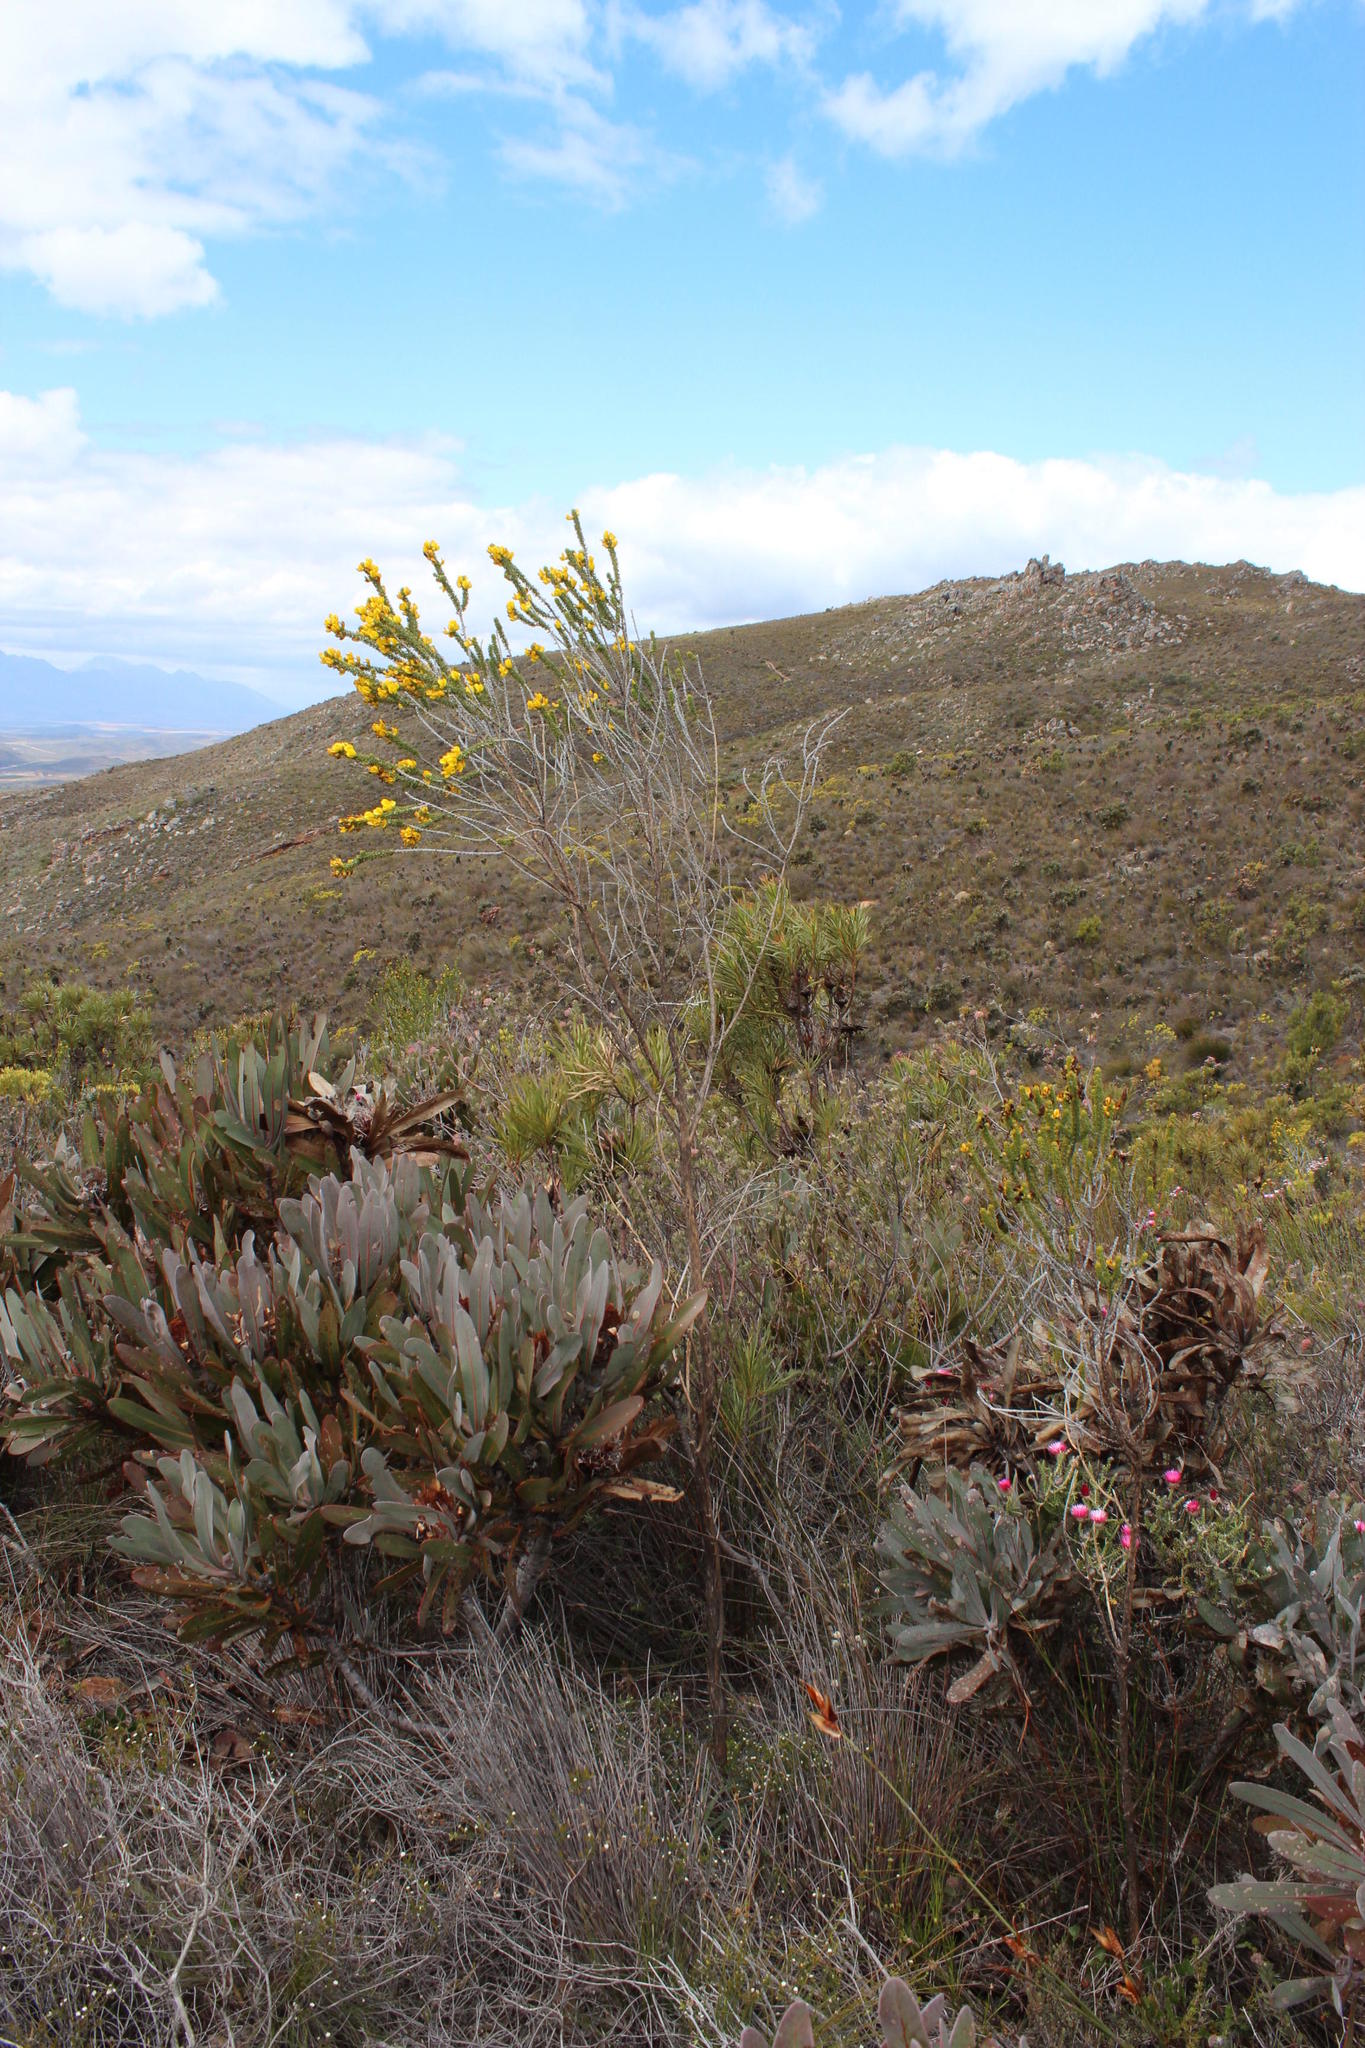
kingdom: Plantae
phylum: Tracheophyta
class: Magnoliopsida
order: Proteales
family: Proteaceae
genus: Protea
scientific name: Protea lorifolia
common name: Strap-leaved protea
